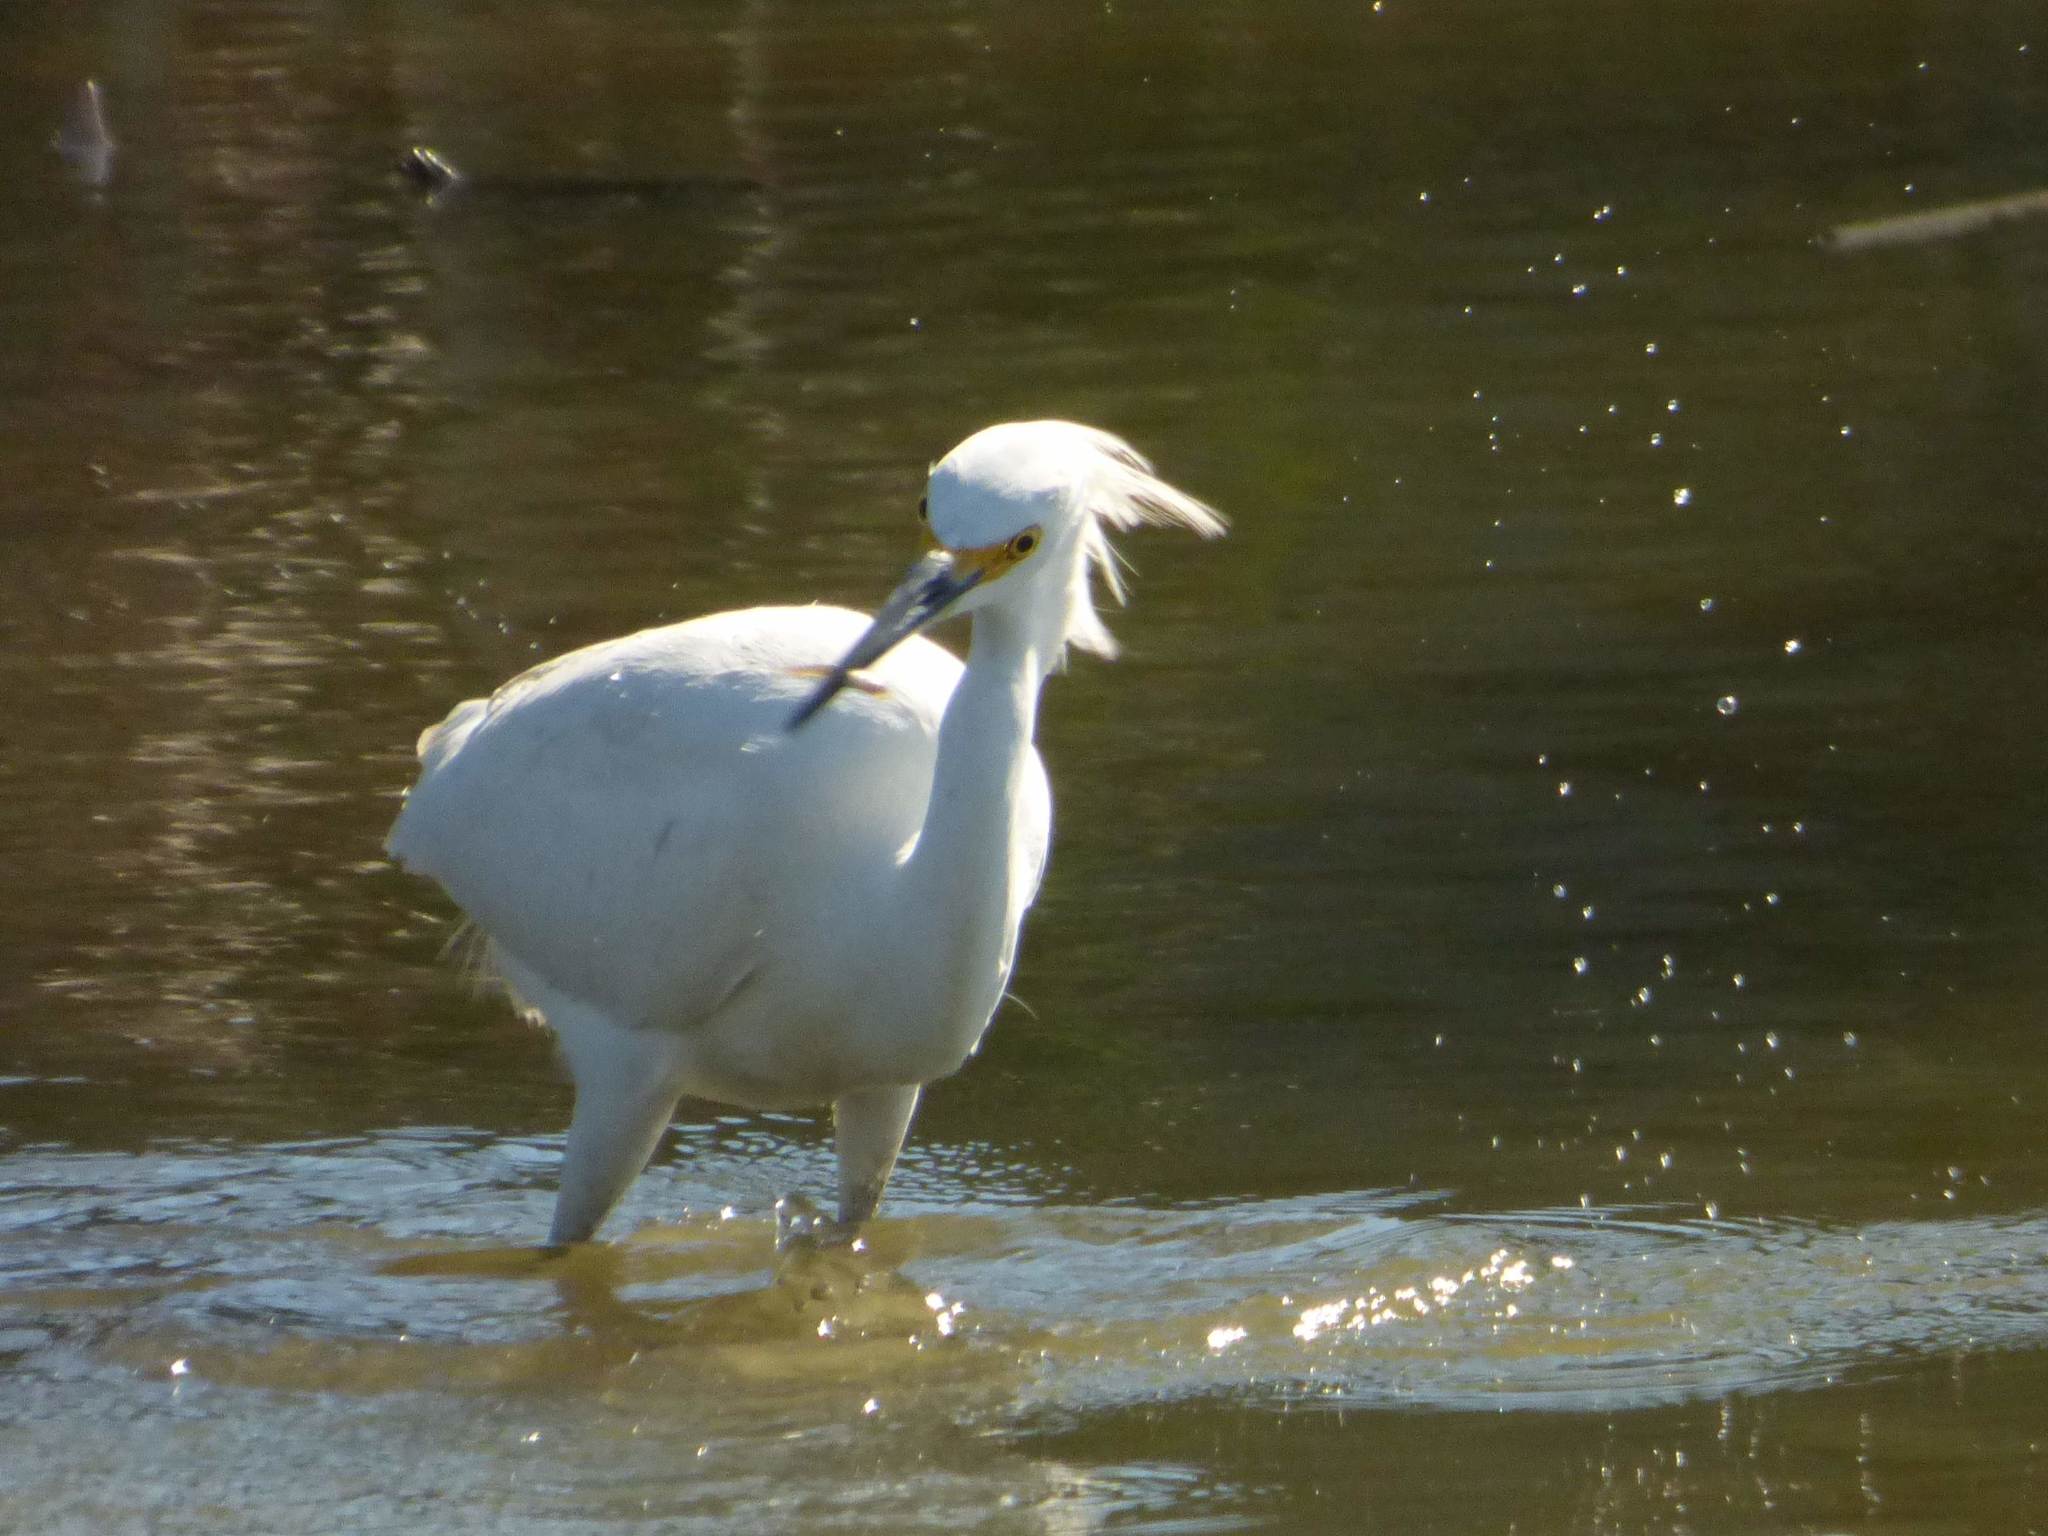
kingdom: Animalia
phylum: Chordata
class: Aves
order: Pelecaniformes
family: Ardeidae
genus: Egretta
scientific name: Egretta thula
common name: Snowy egret
